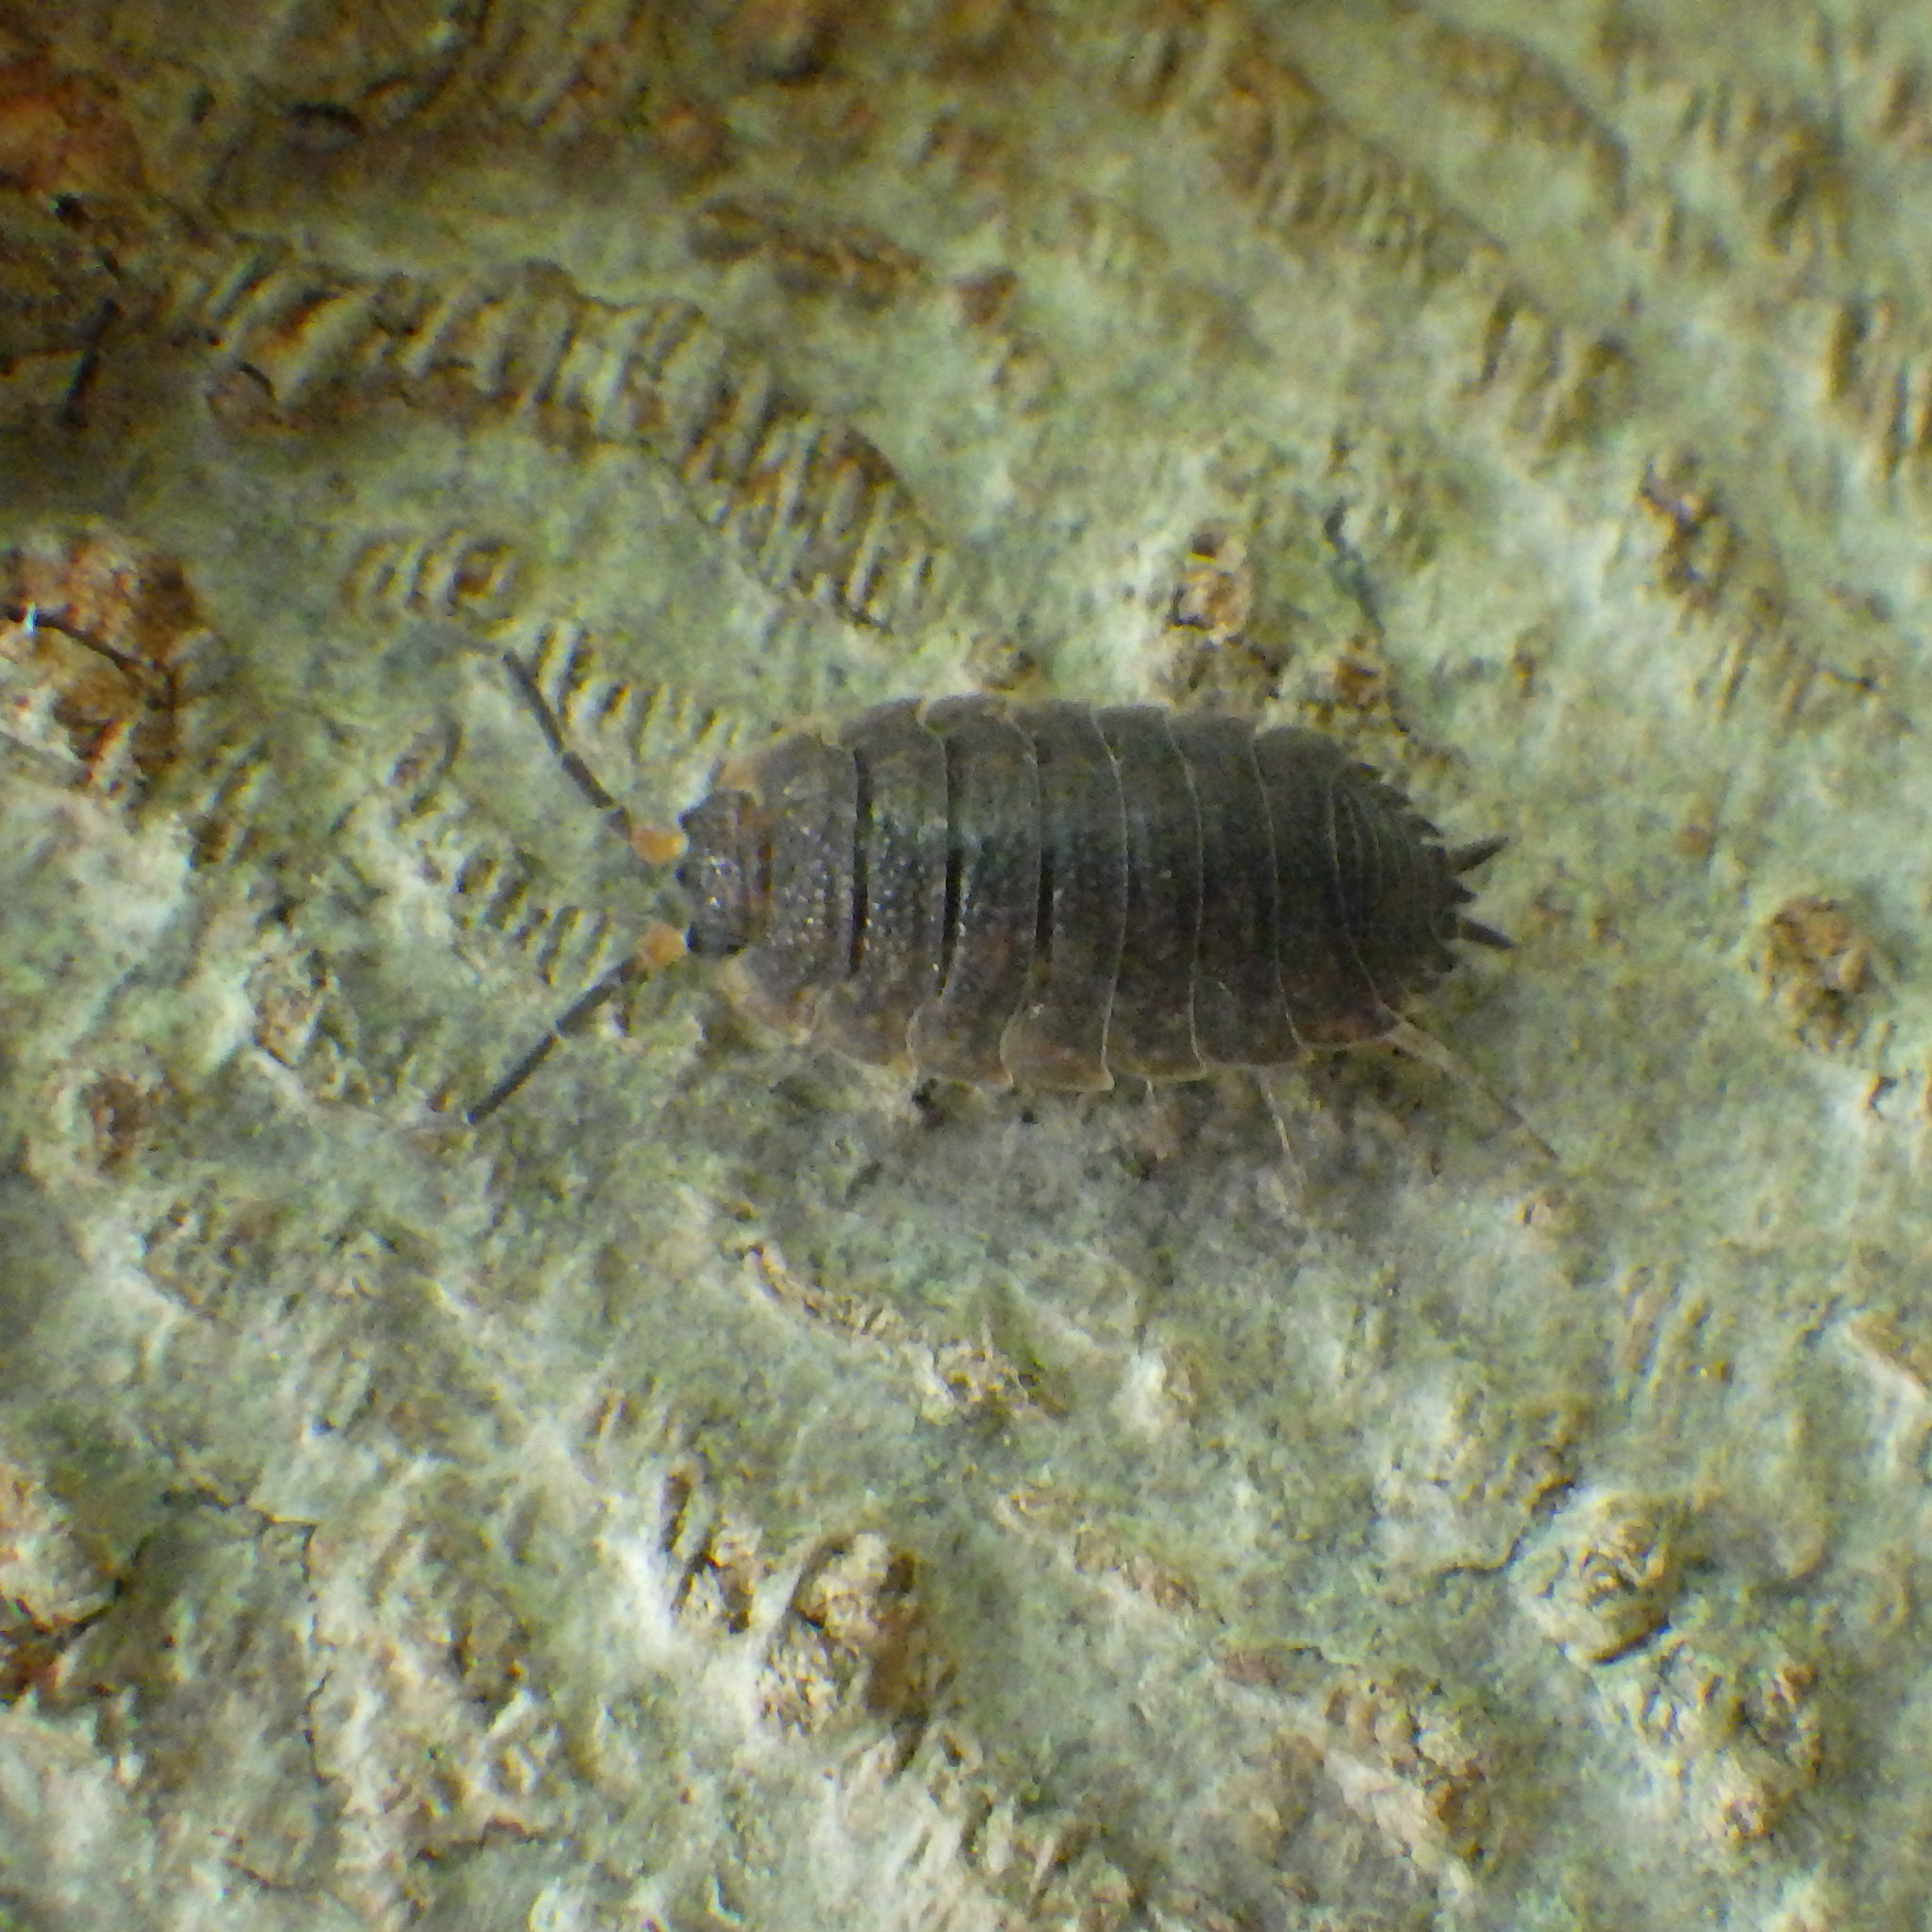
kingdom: Animalia
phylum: Arthropoda
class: Malacostraca
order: Isopoda
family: Porcellionidae
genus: Porcellio
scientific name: Porcellio scaber
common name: Common rough woodlouse
